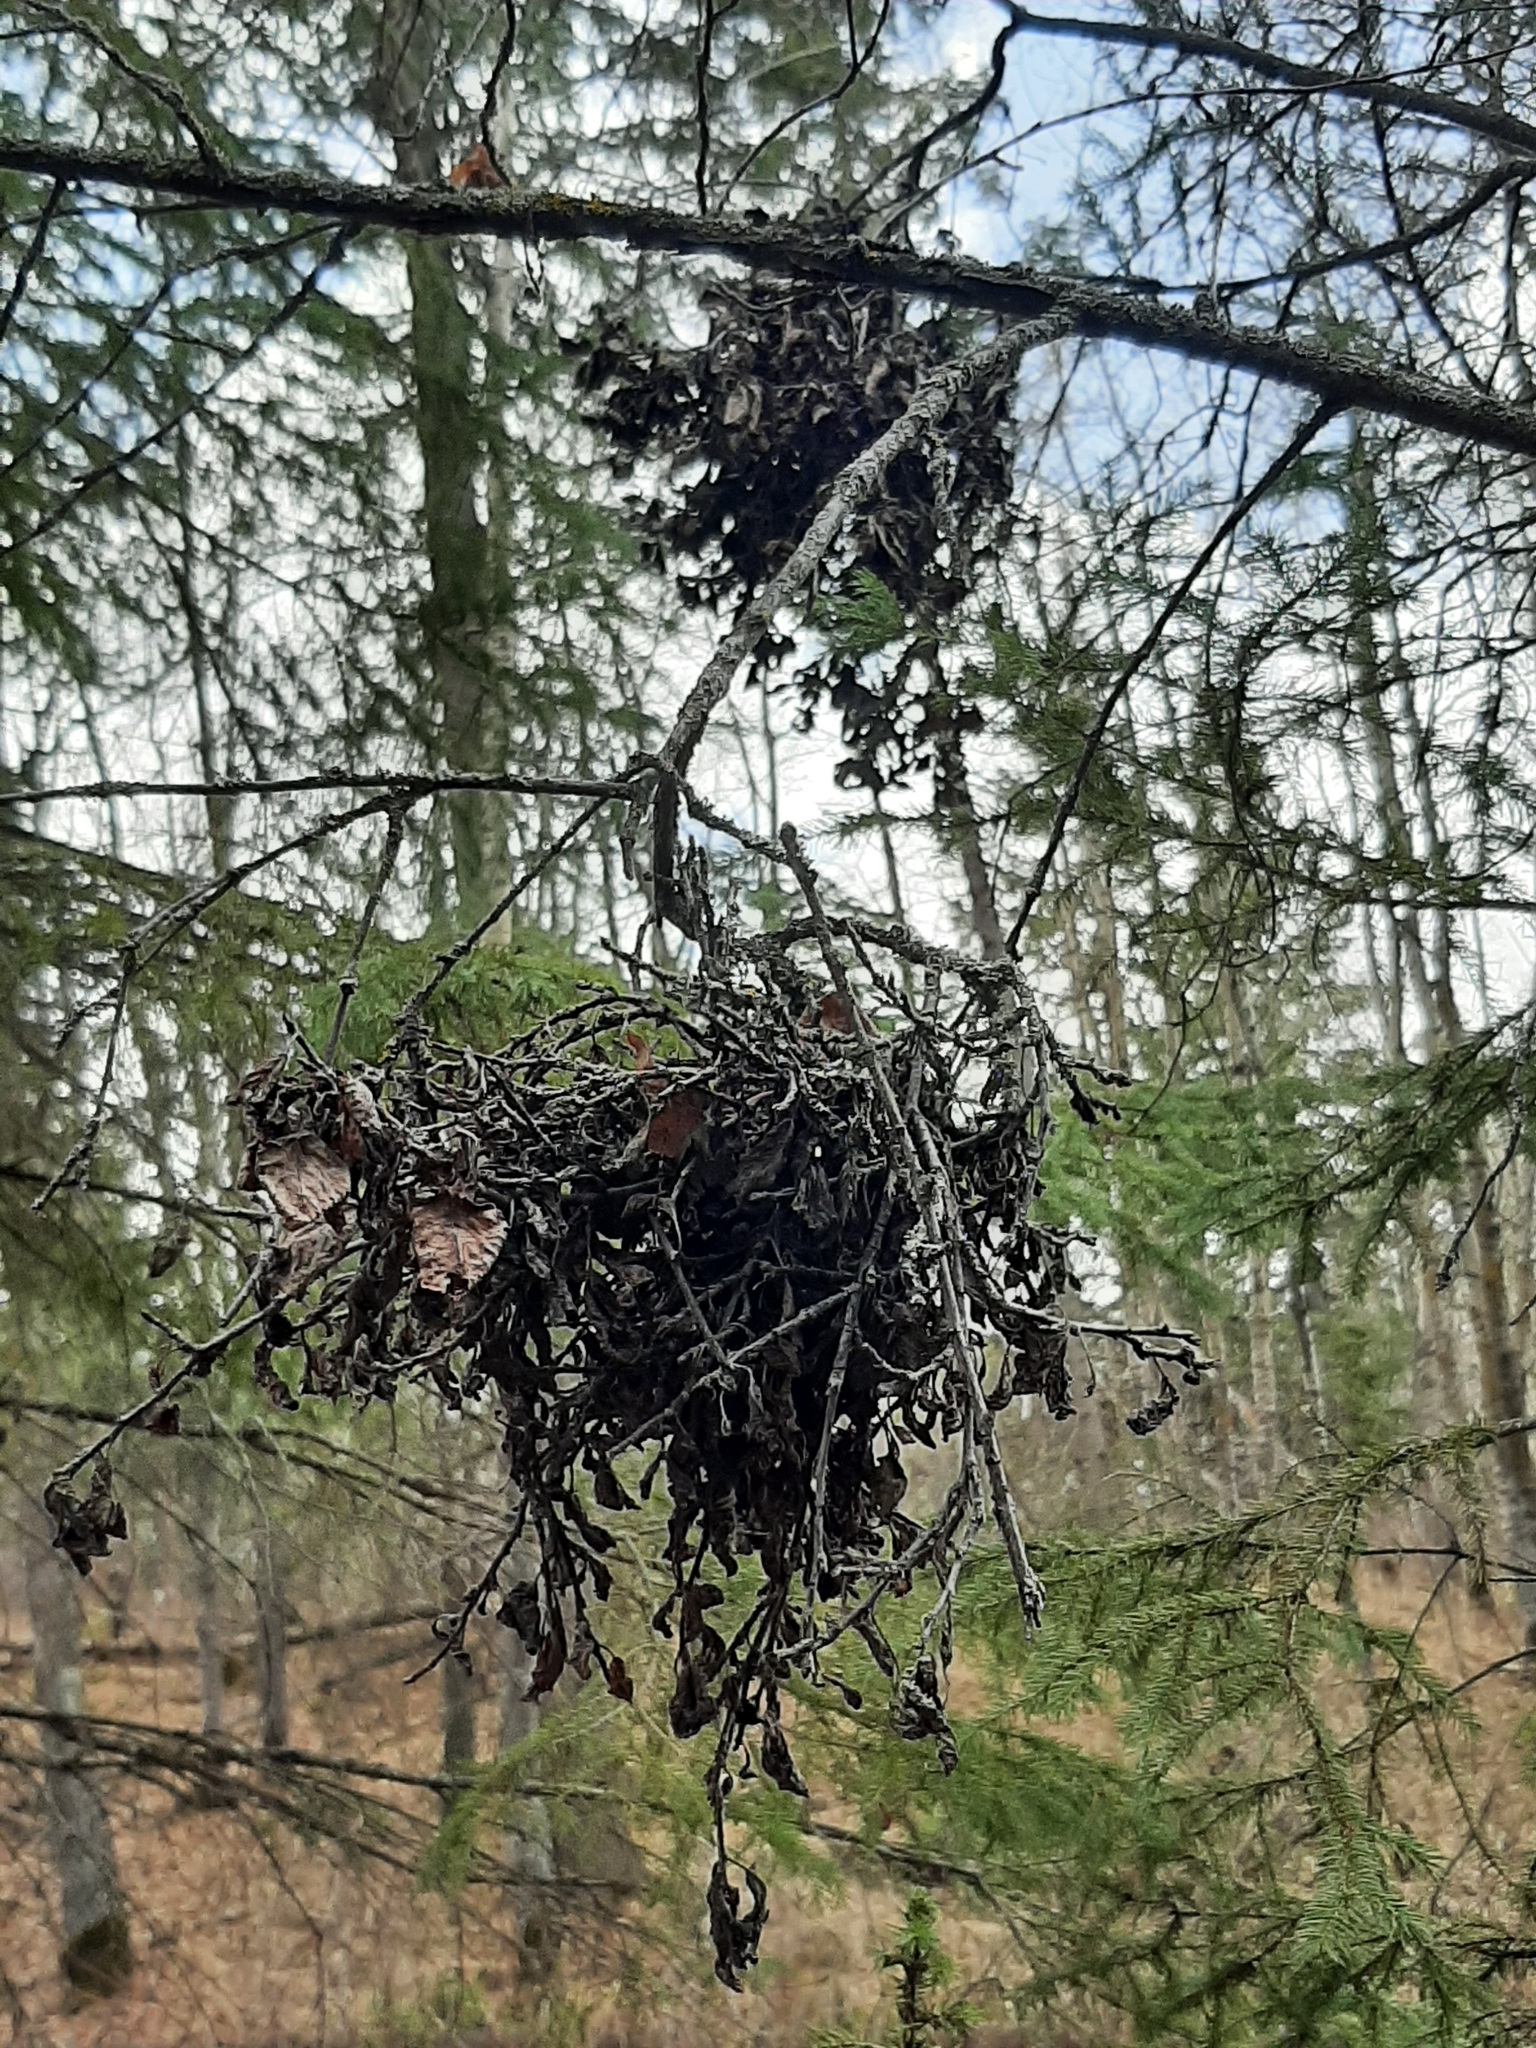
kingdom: Fungi
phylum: Ascomycota
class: Dothideomycetes
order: Venturiales
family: Venturiaceae
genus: Apiosporina
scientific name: Apiosporina collinsii
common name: Black leaf
